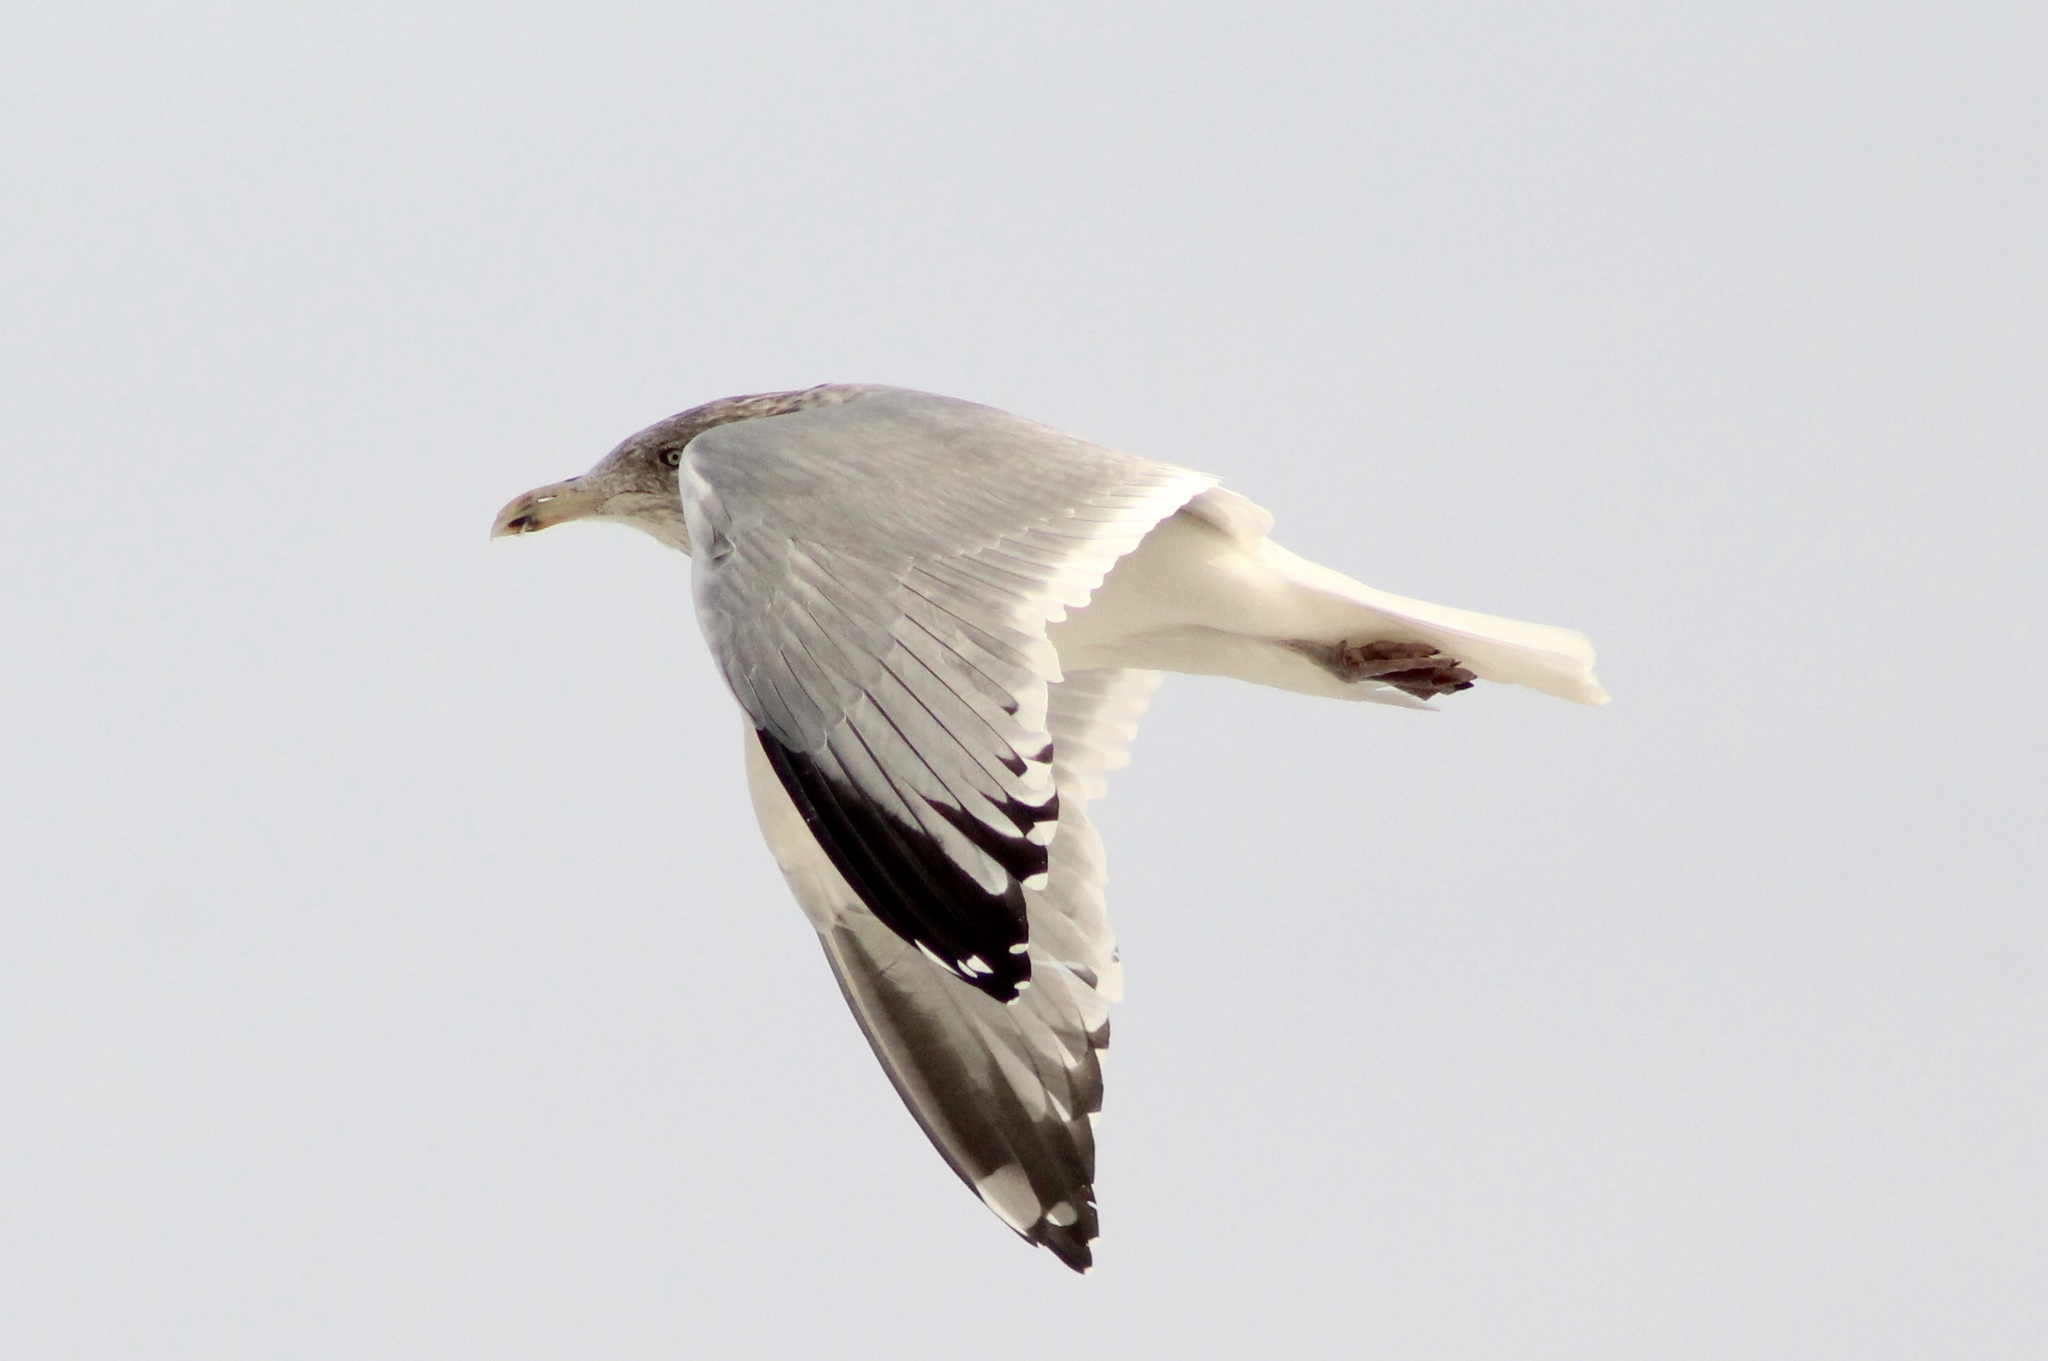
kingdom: Animalia
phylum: Chordata
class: Aves
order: Charadriiformes
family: Laridae
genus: Larus
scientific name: Larus argentatus
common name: Herring gull
